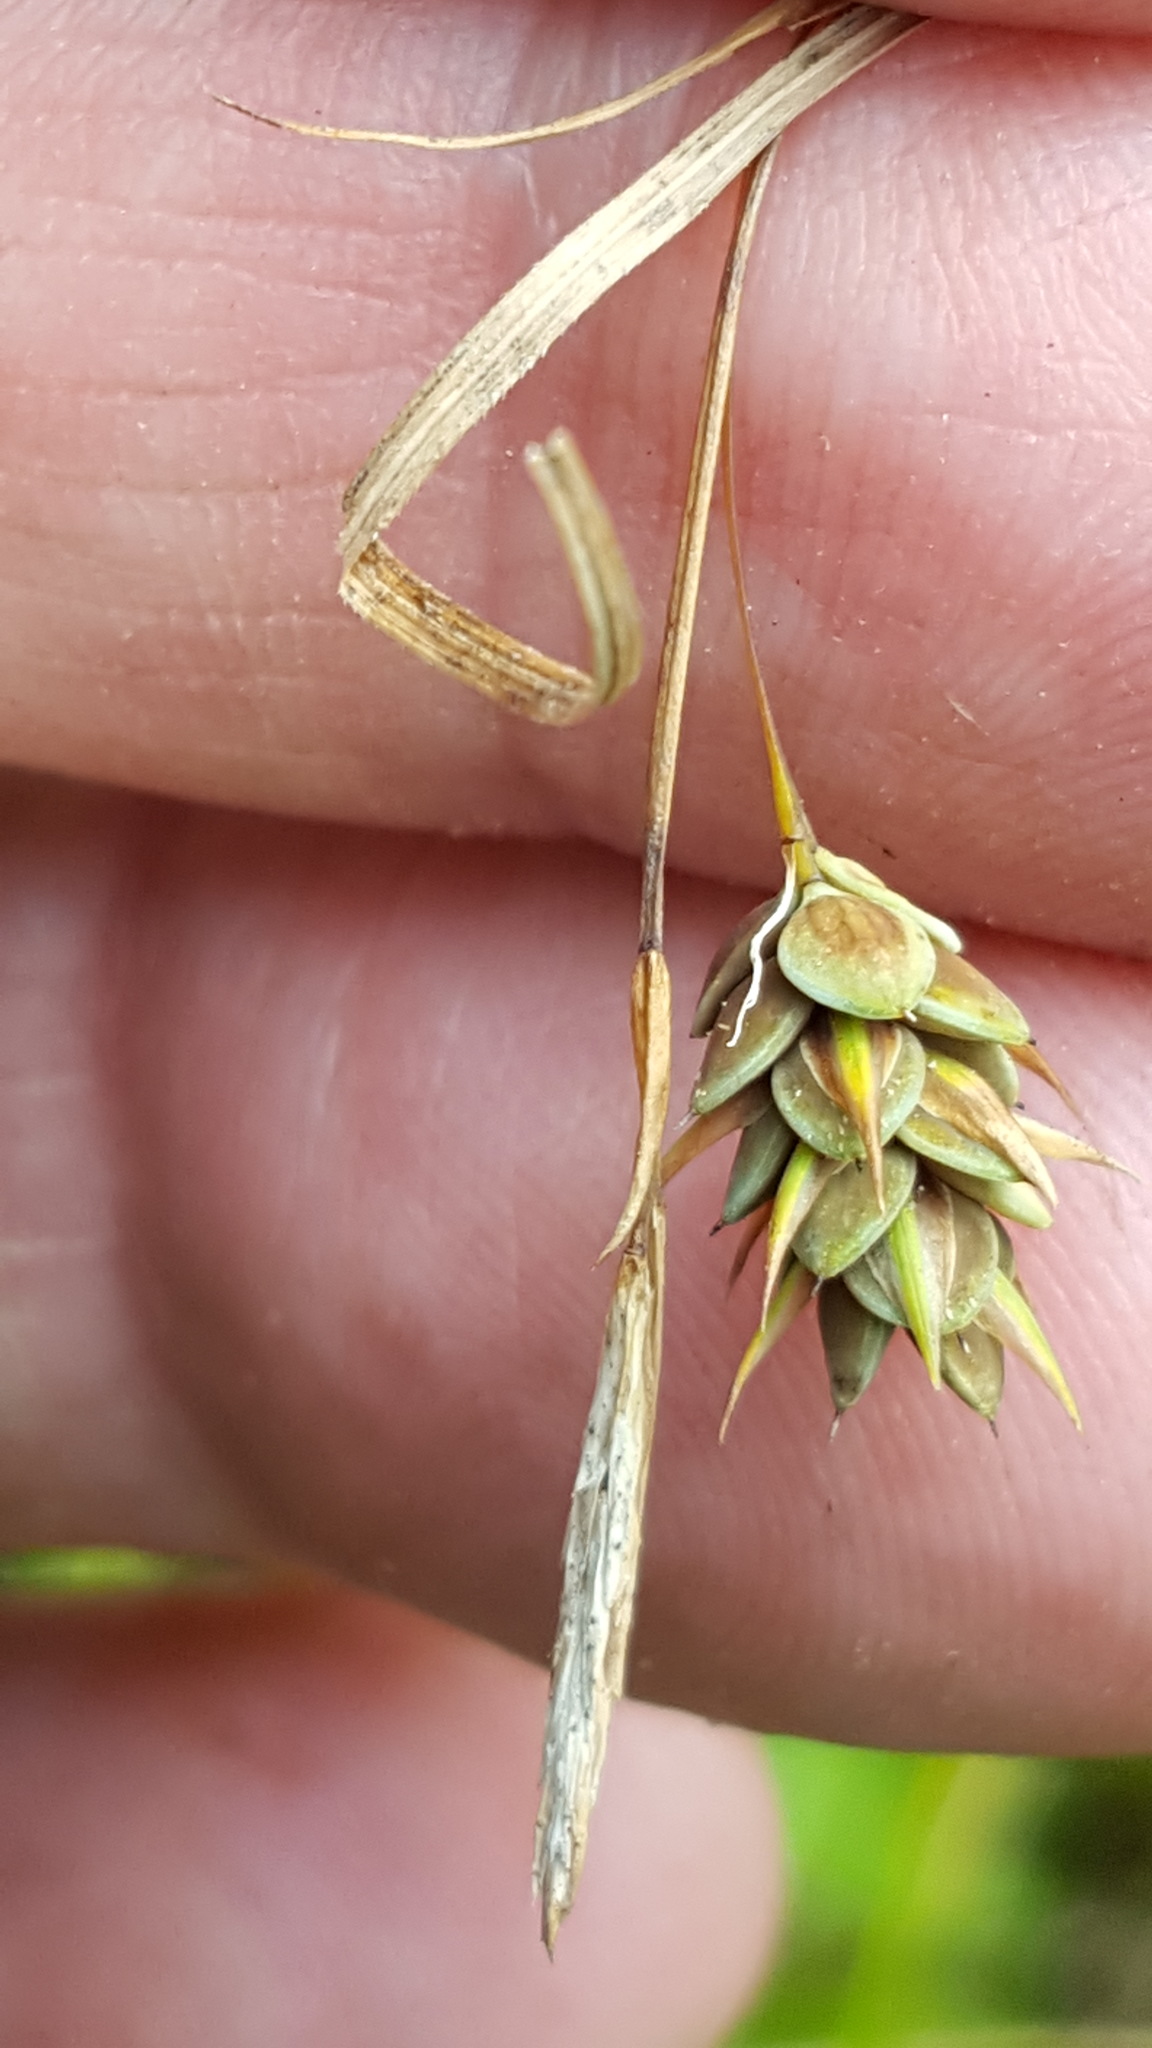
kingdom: Plantae
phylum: Tracheophyta
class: Liliopsida
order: Poales
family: Cyperaceae
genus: Carex
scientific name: Carex magellanica
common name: Bog sedge
